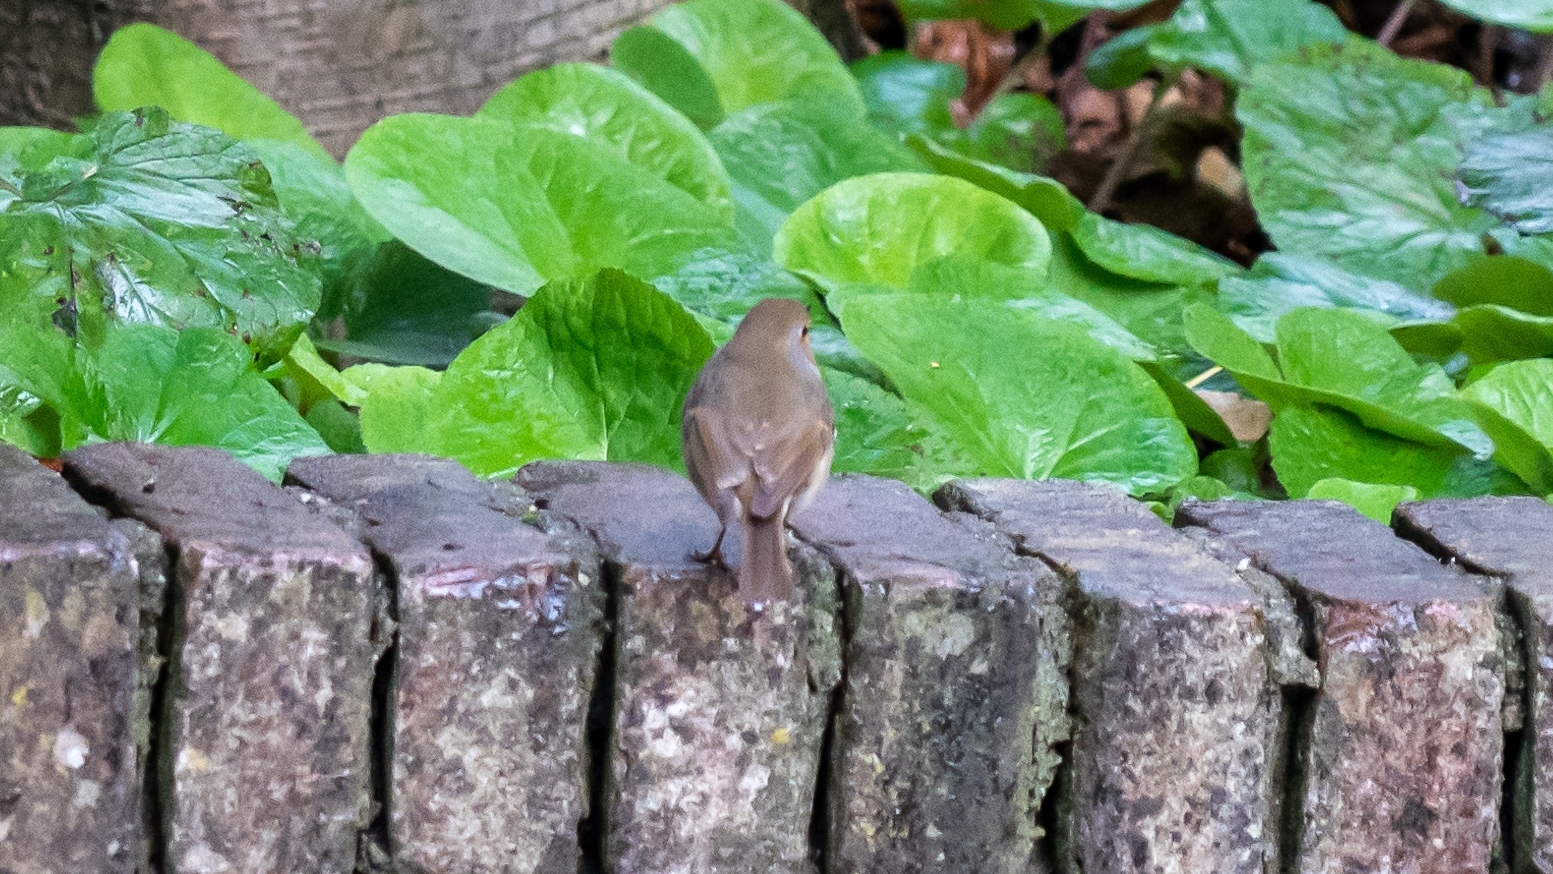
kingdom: Animalia
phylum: Chordata
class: Aves
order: Passeriformes
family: Muscicapidae
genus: Erithacus
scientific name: Erithacus rubecula
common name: European robin
